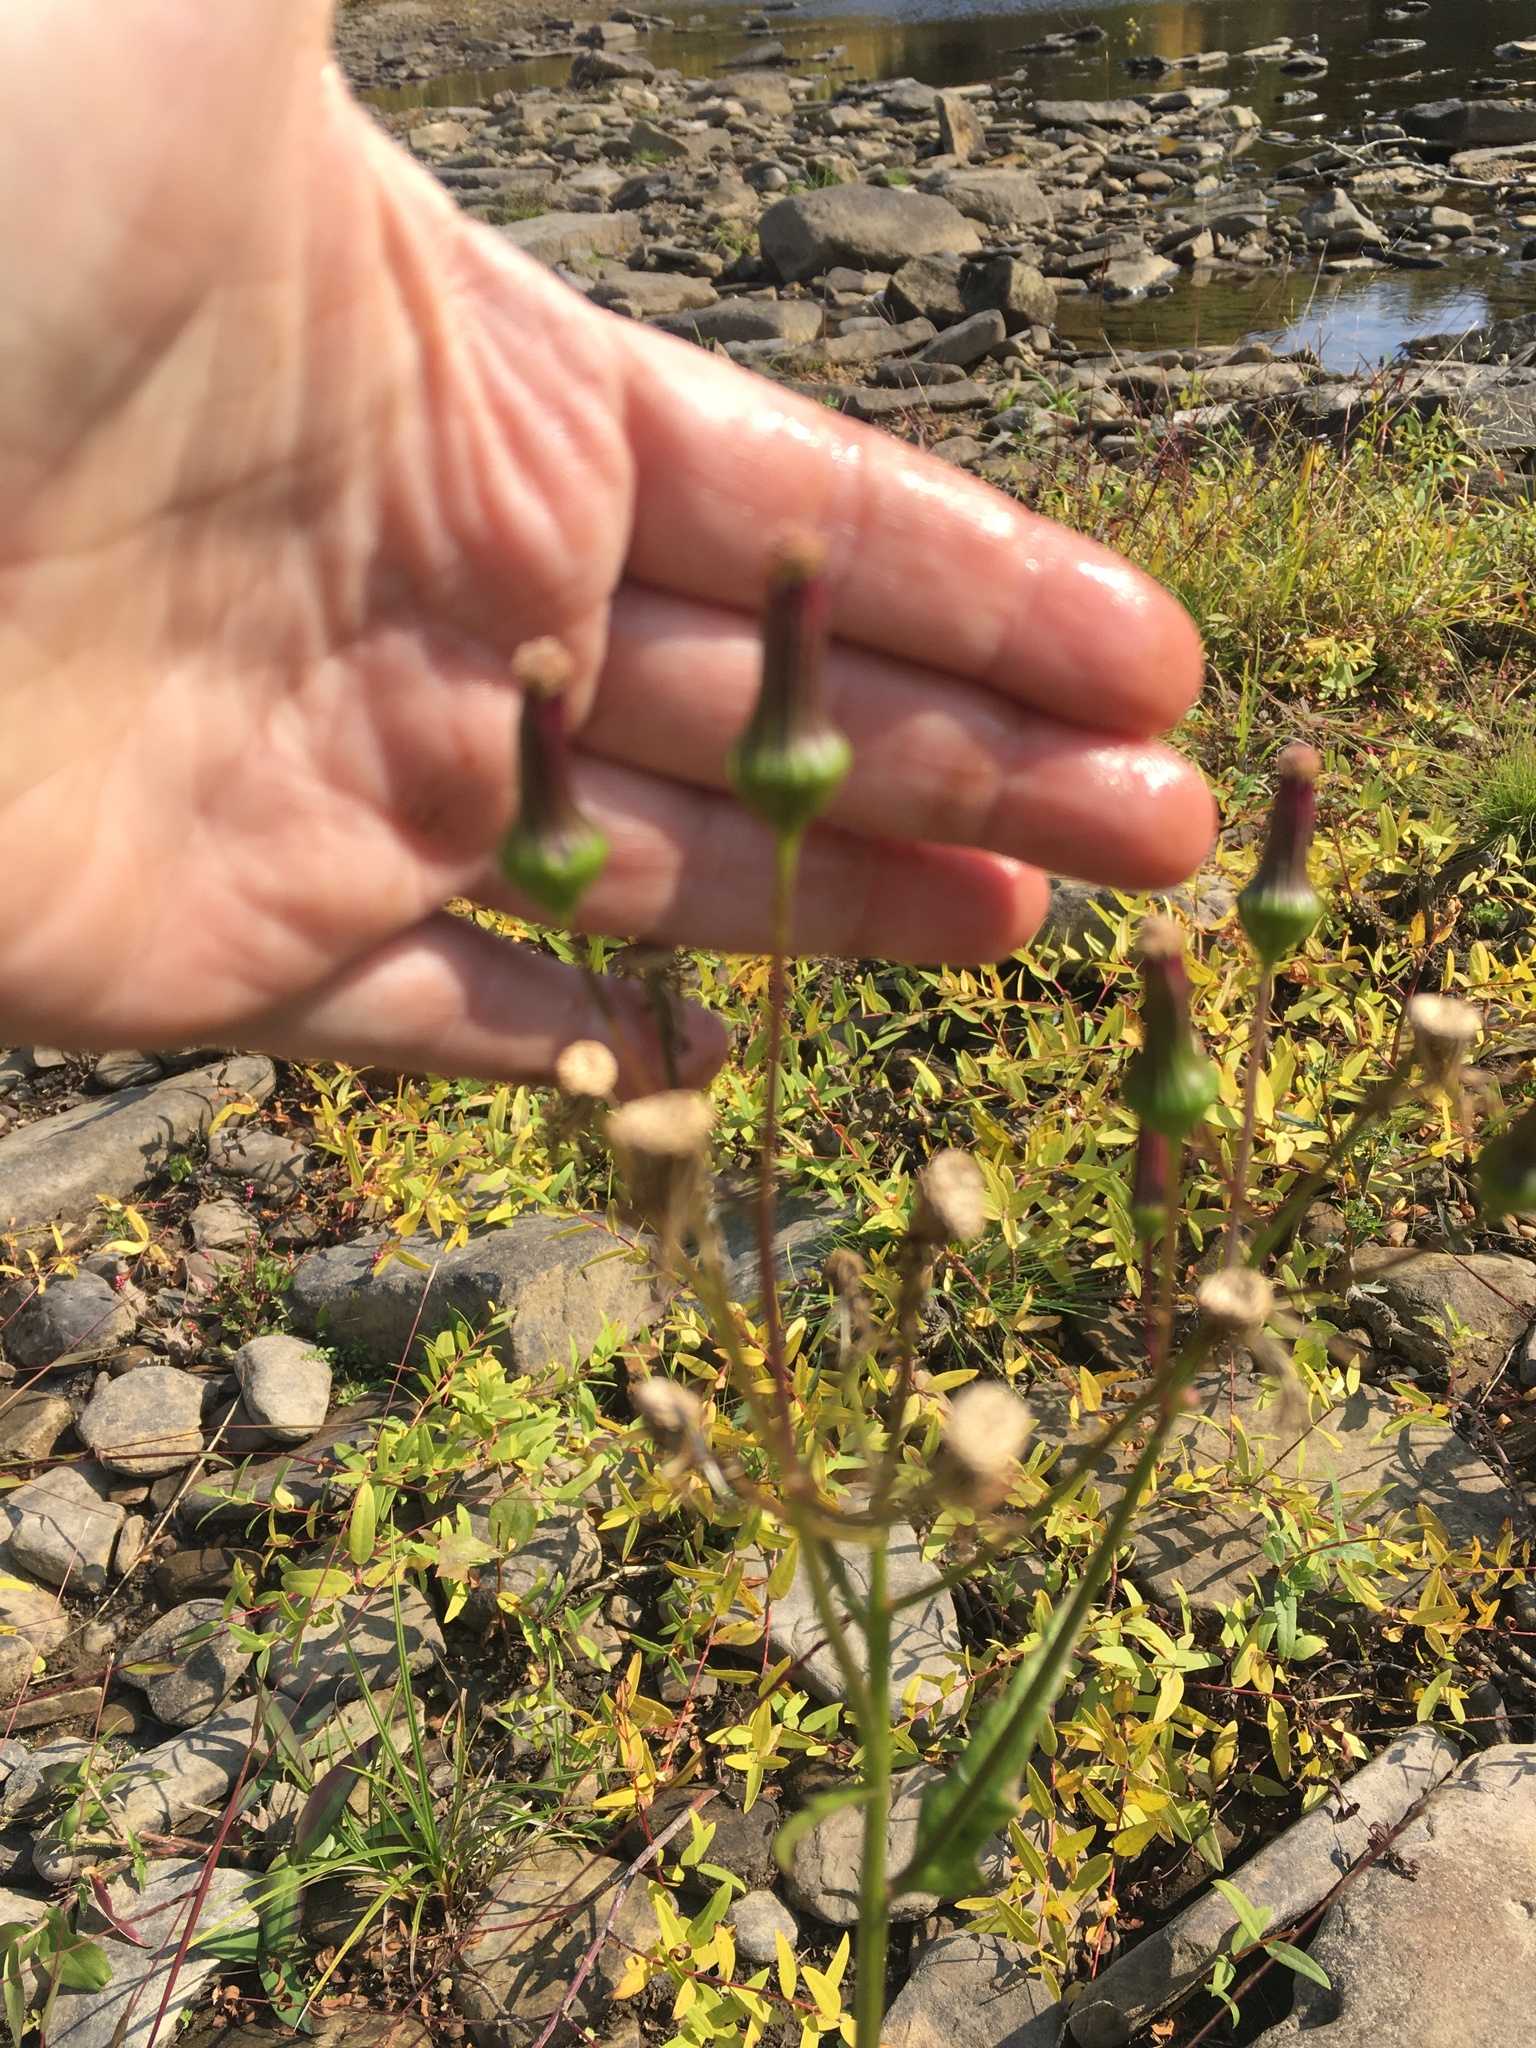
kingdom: Plantae
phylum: Tracheophyta
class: Magnoliopsida
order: Asterales
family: Asteraceae
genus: Erechtites
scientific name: Erechtites hieraciifolius
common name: American burnweed
